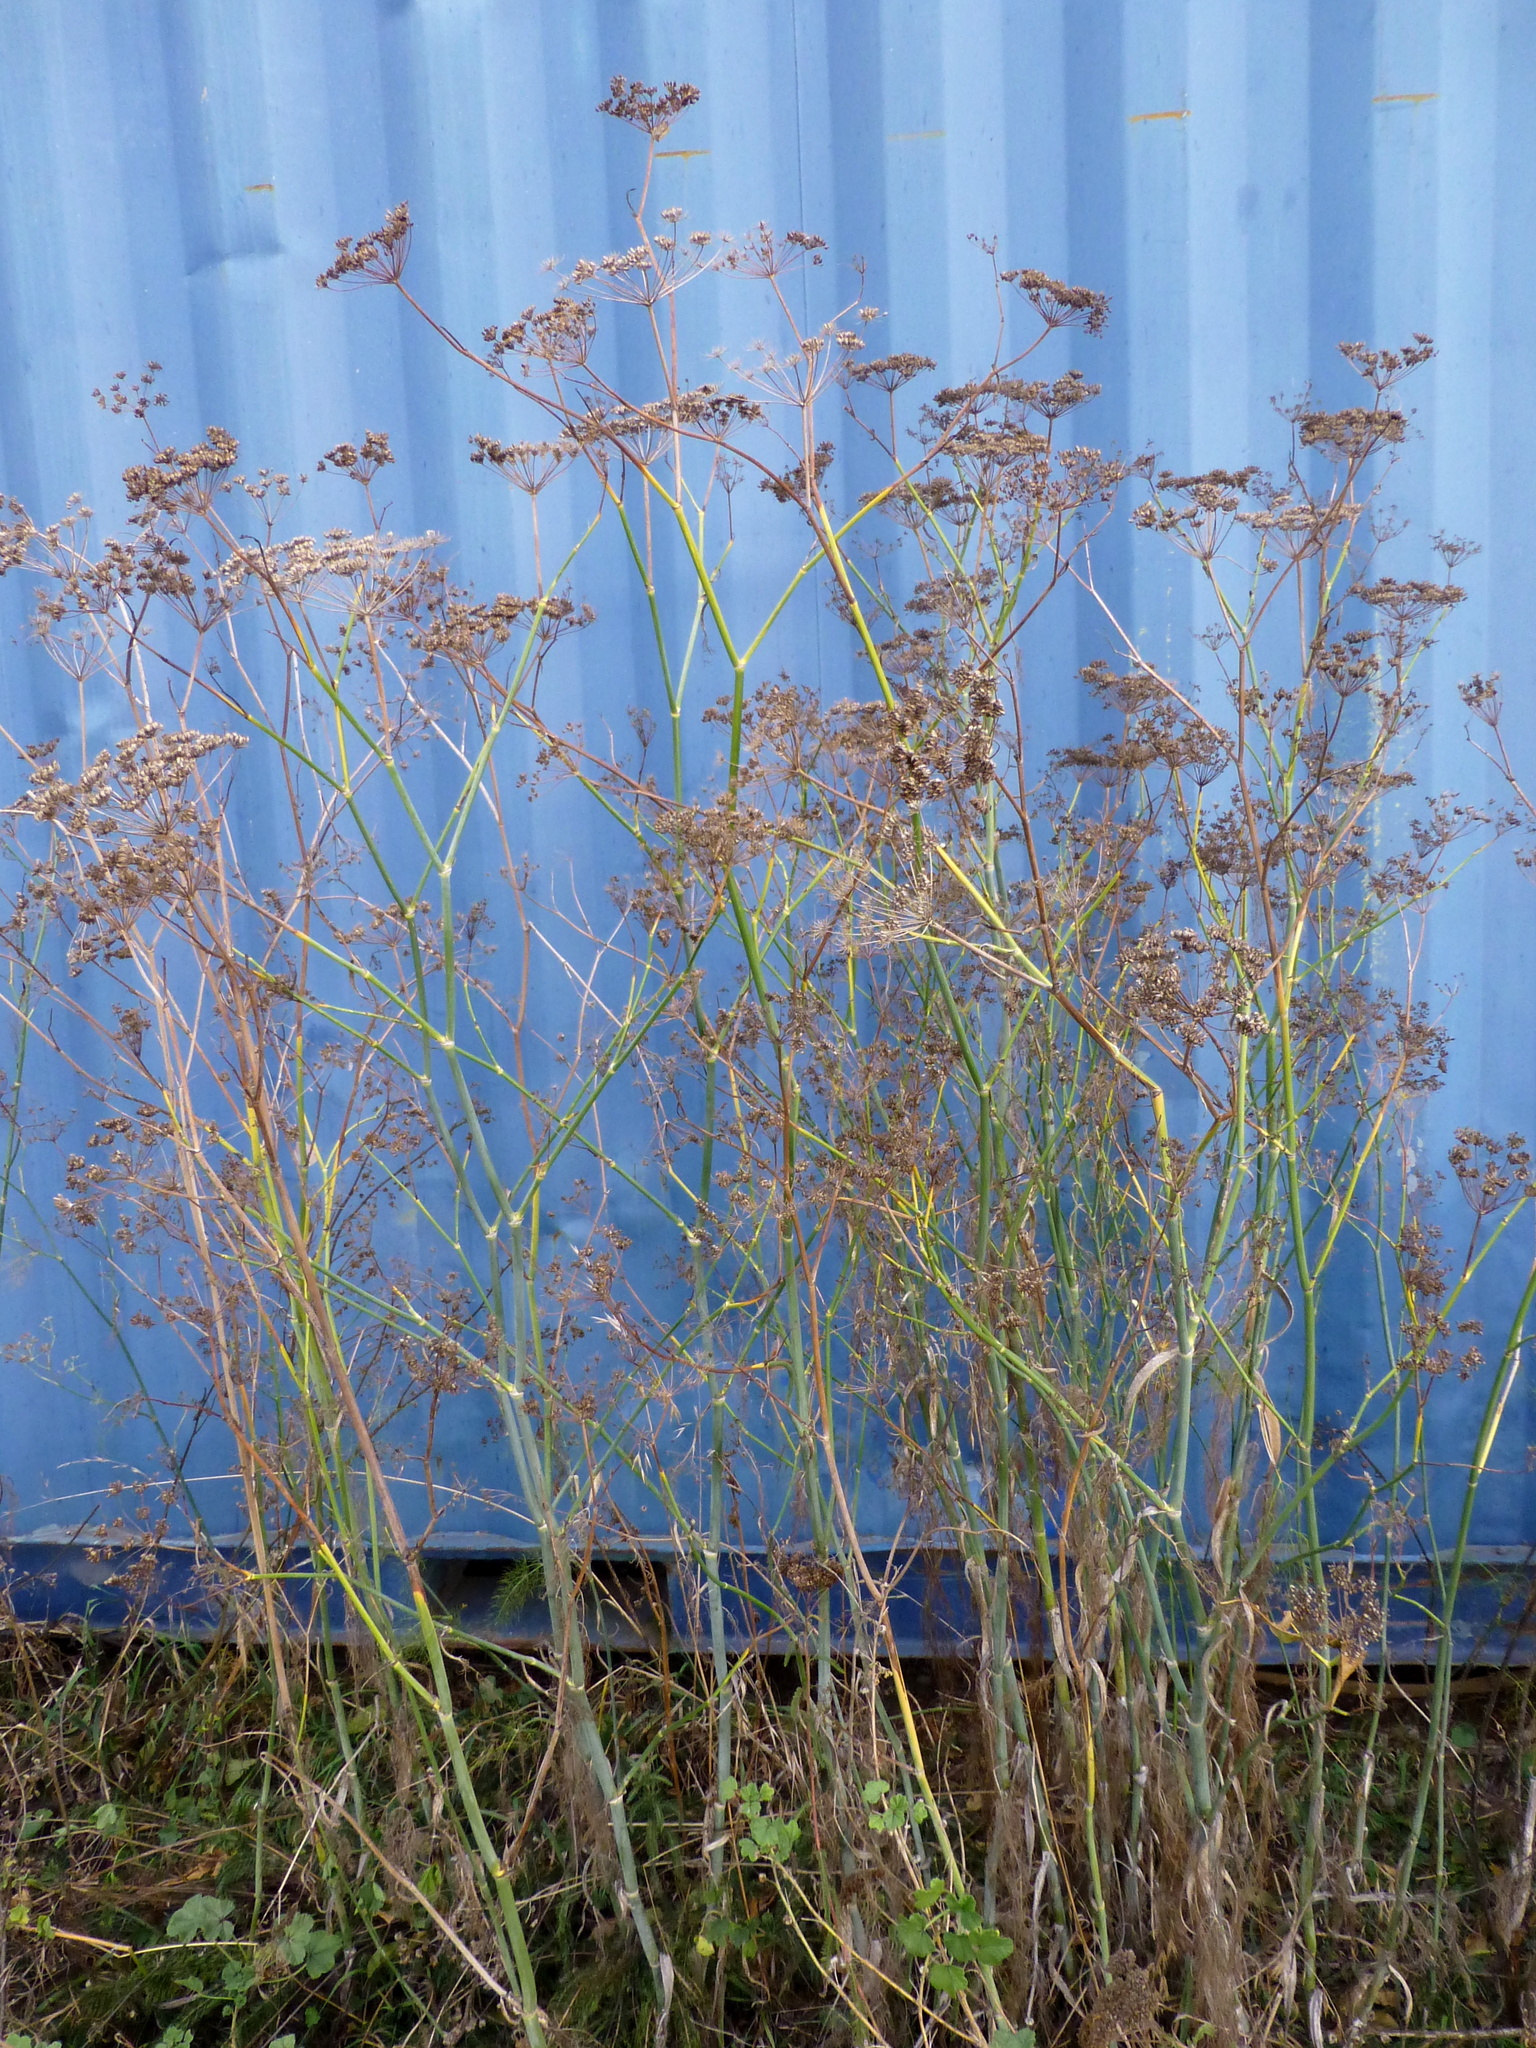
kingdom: Plantae
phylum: Tracheophyta
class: Magnoliopsida
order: Apiales
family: Apiaceae
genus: Foeniculum
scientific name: Foeniculum vulgare
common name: Fennel
